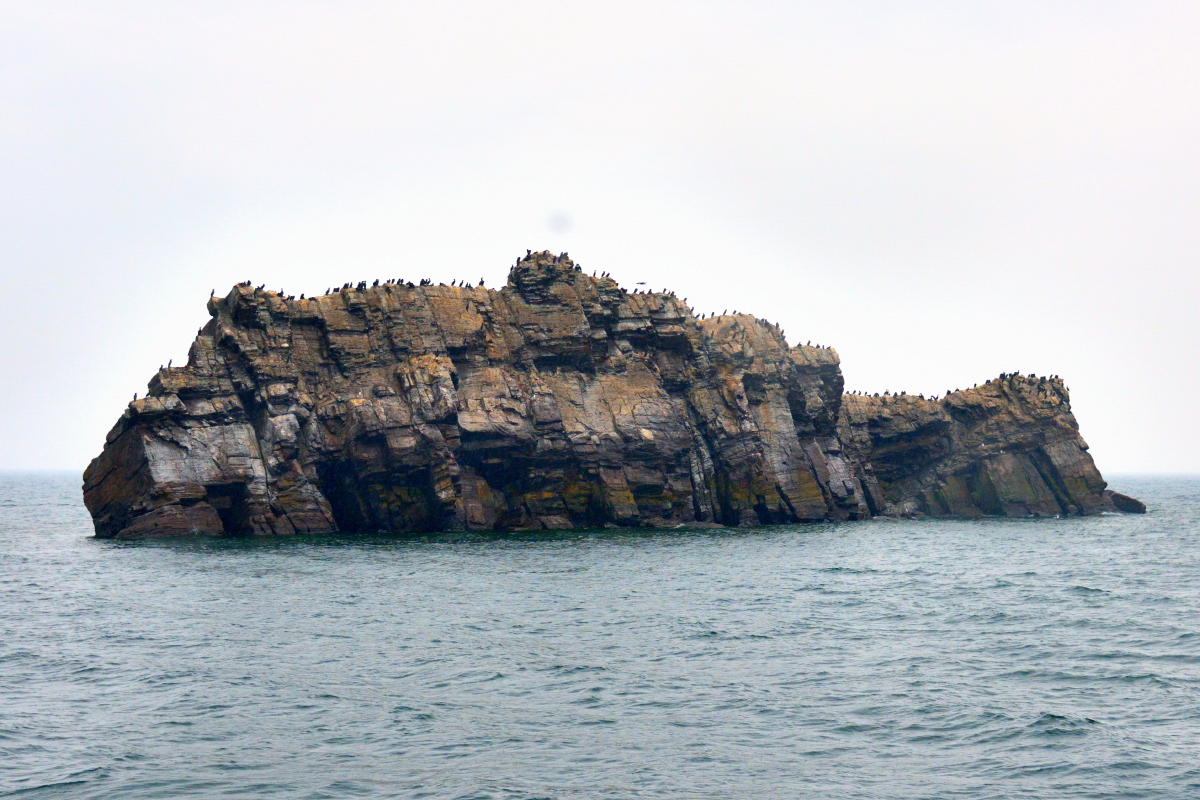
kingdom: Animalia
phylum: Chordata
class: Aves
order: Suliformes
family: Phalacrocoracidae
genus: Phalacrocorax
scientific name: Phalacrocorax carbo
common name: Great cormorant
